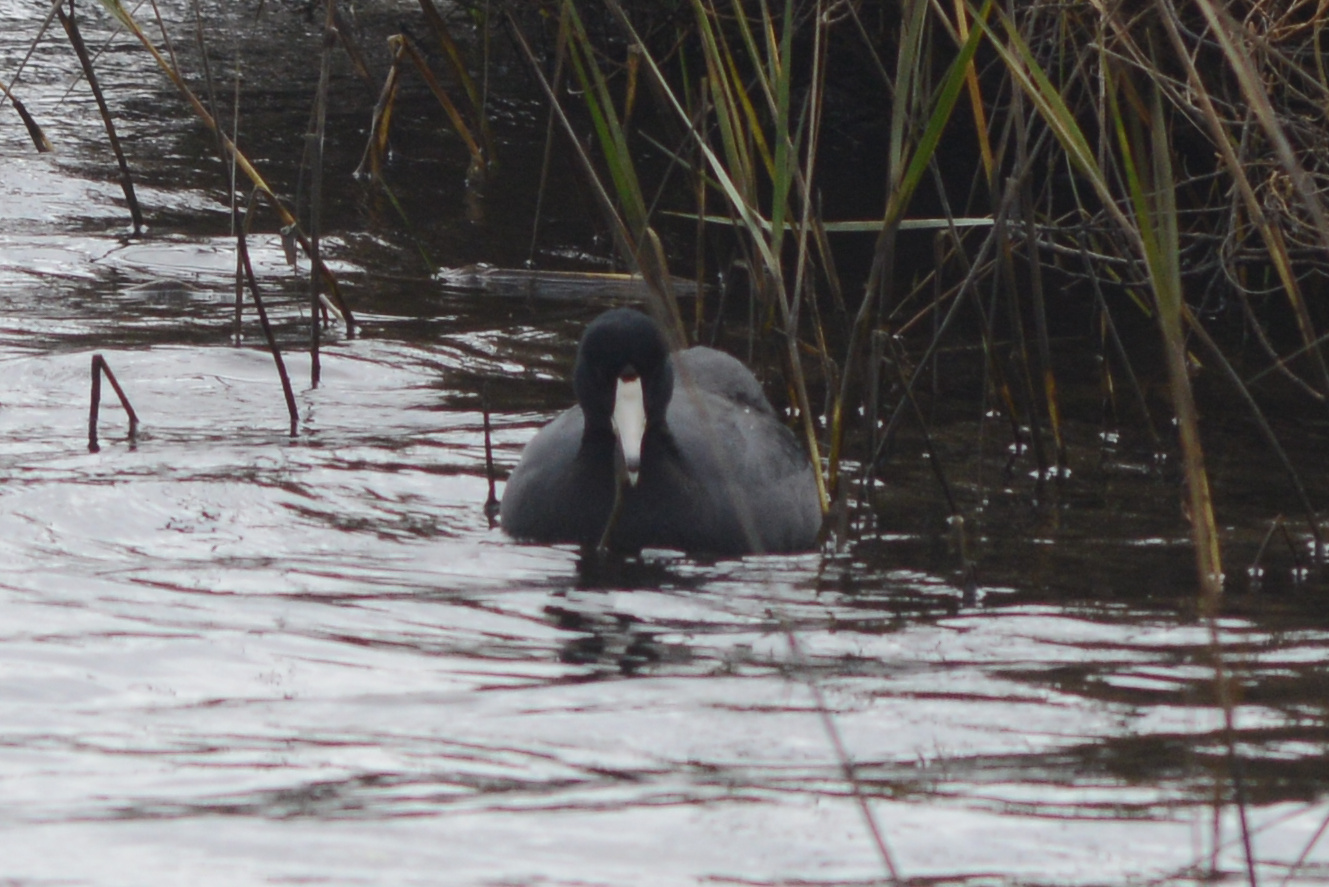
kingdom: Animalia
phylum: Chordata
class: Aves
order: Gruiformes
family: Rallidae
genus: Fulica
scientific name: Fulica americana
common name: American coot
